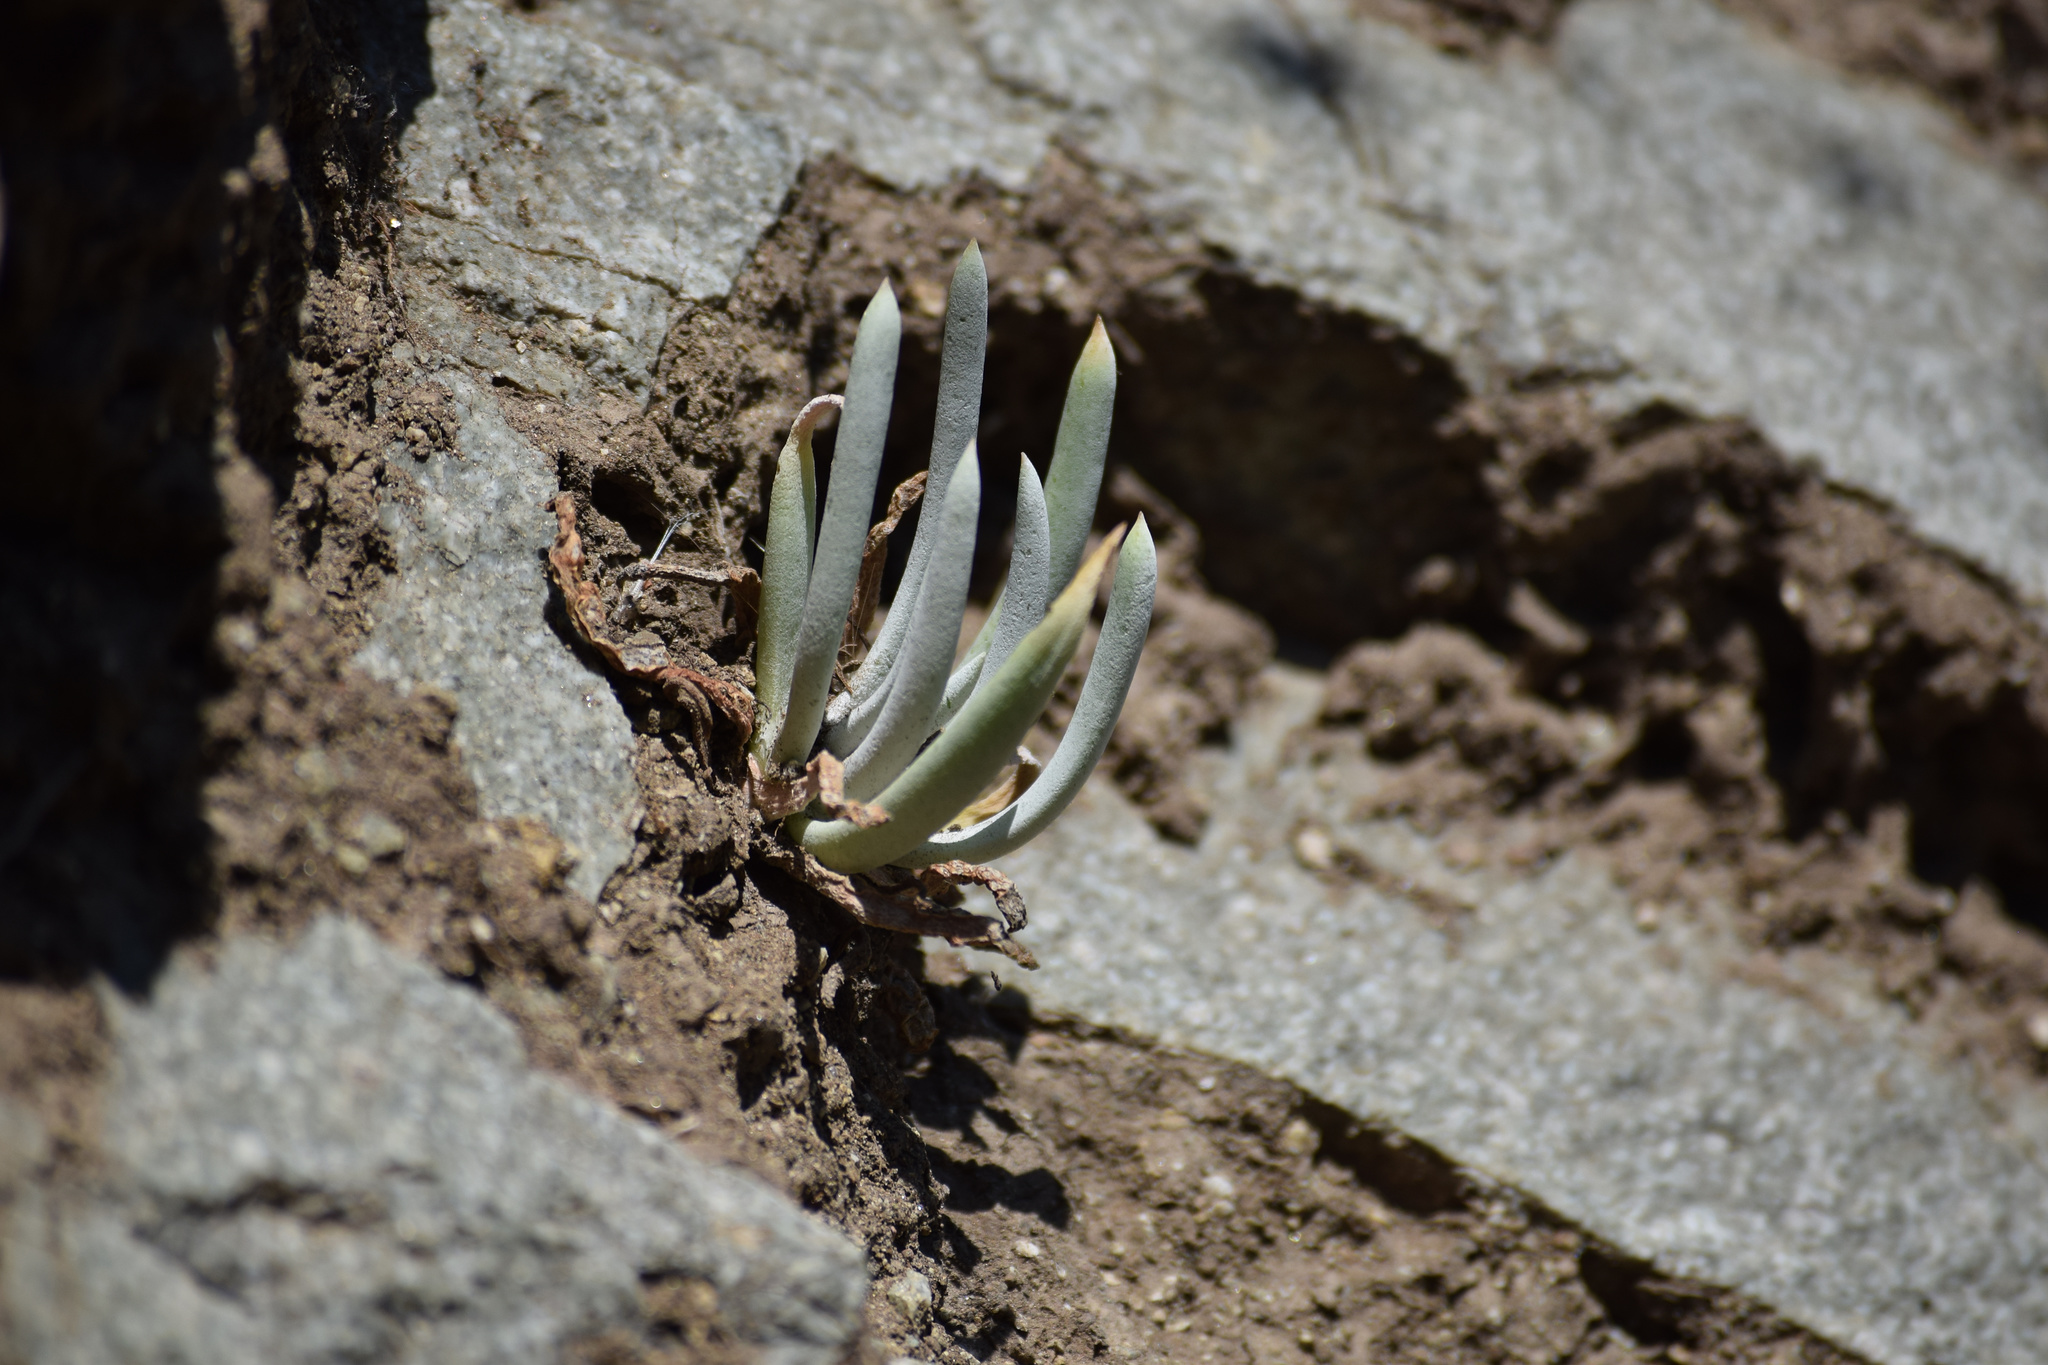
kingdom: Plantae
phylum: Tracheophyta
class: Magnoliopsida
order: Saxifragales
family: Crassulaceae
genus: Dudleya
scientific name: Dudleya densiflora
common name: San gabriel mountains dudleya
